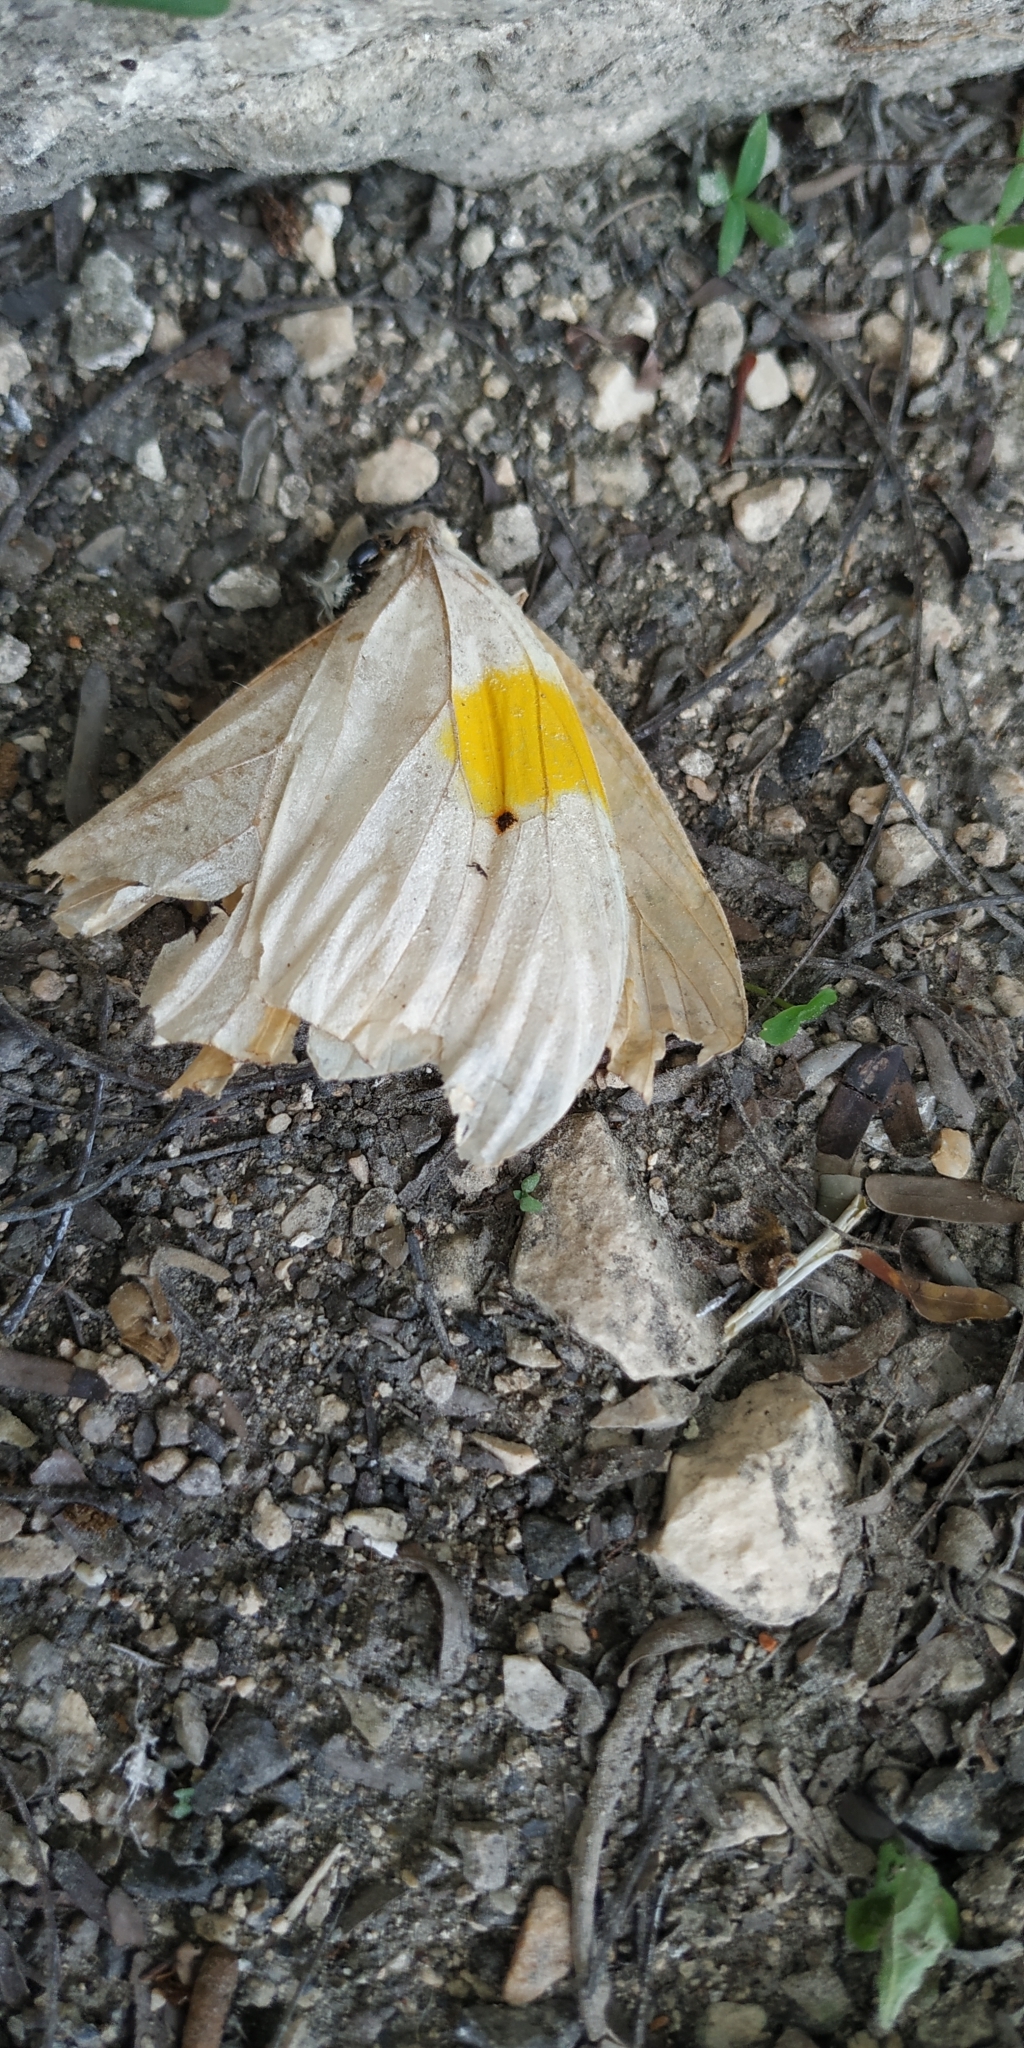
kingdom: Animalia
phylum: Arthropoda
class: Insecta
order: Lepidoptera
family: Pieridae
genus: Anteos
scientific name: Anteos clorinde
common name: White angled sulphur
